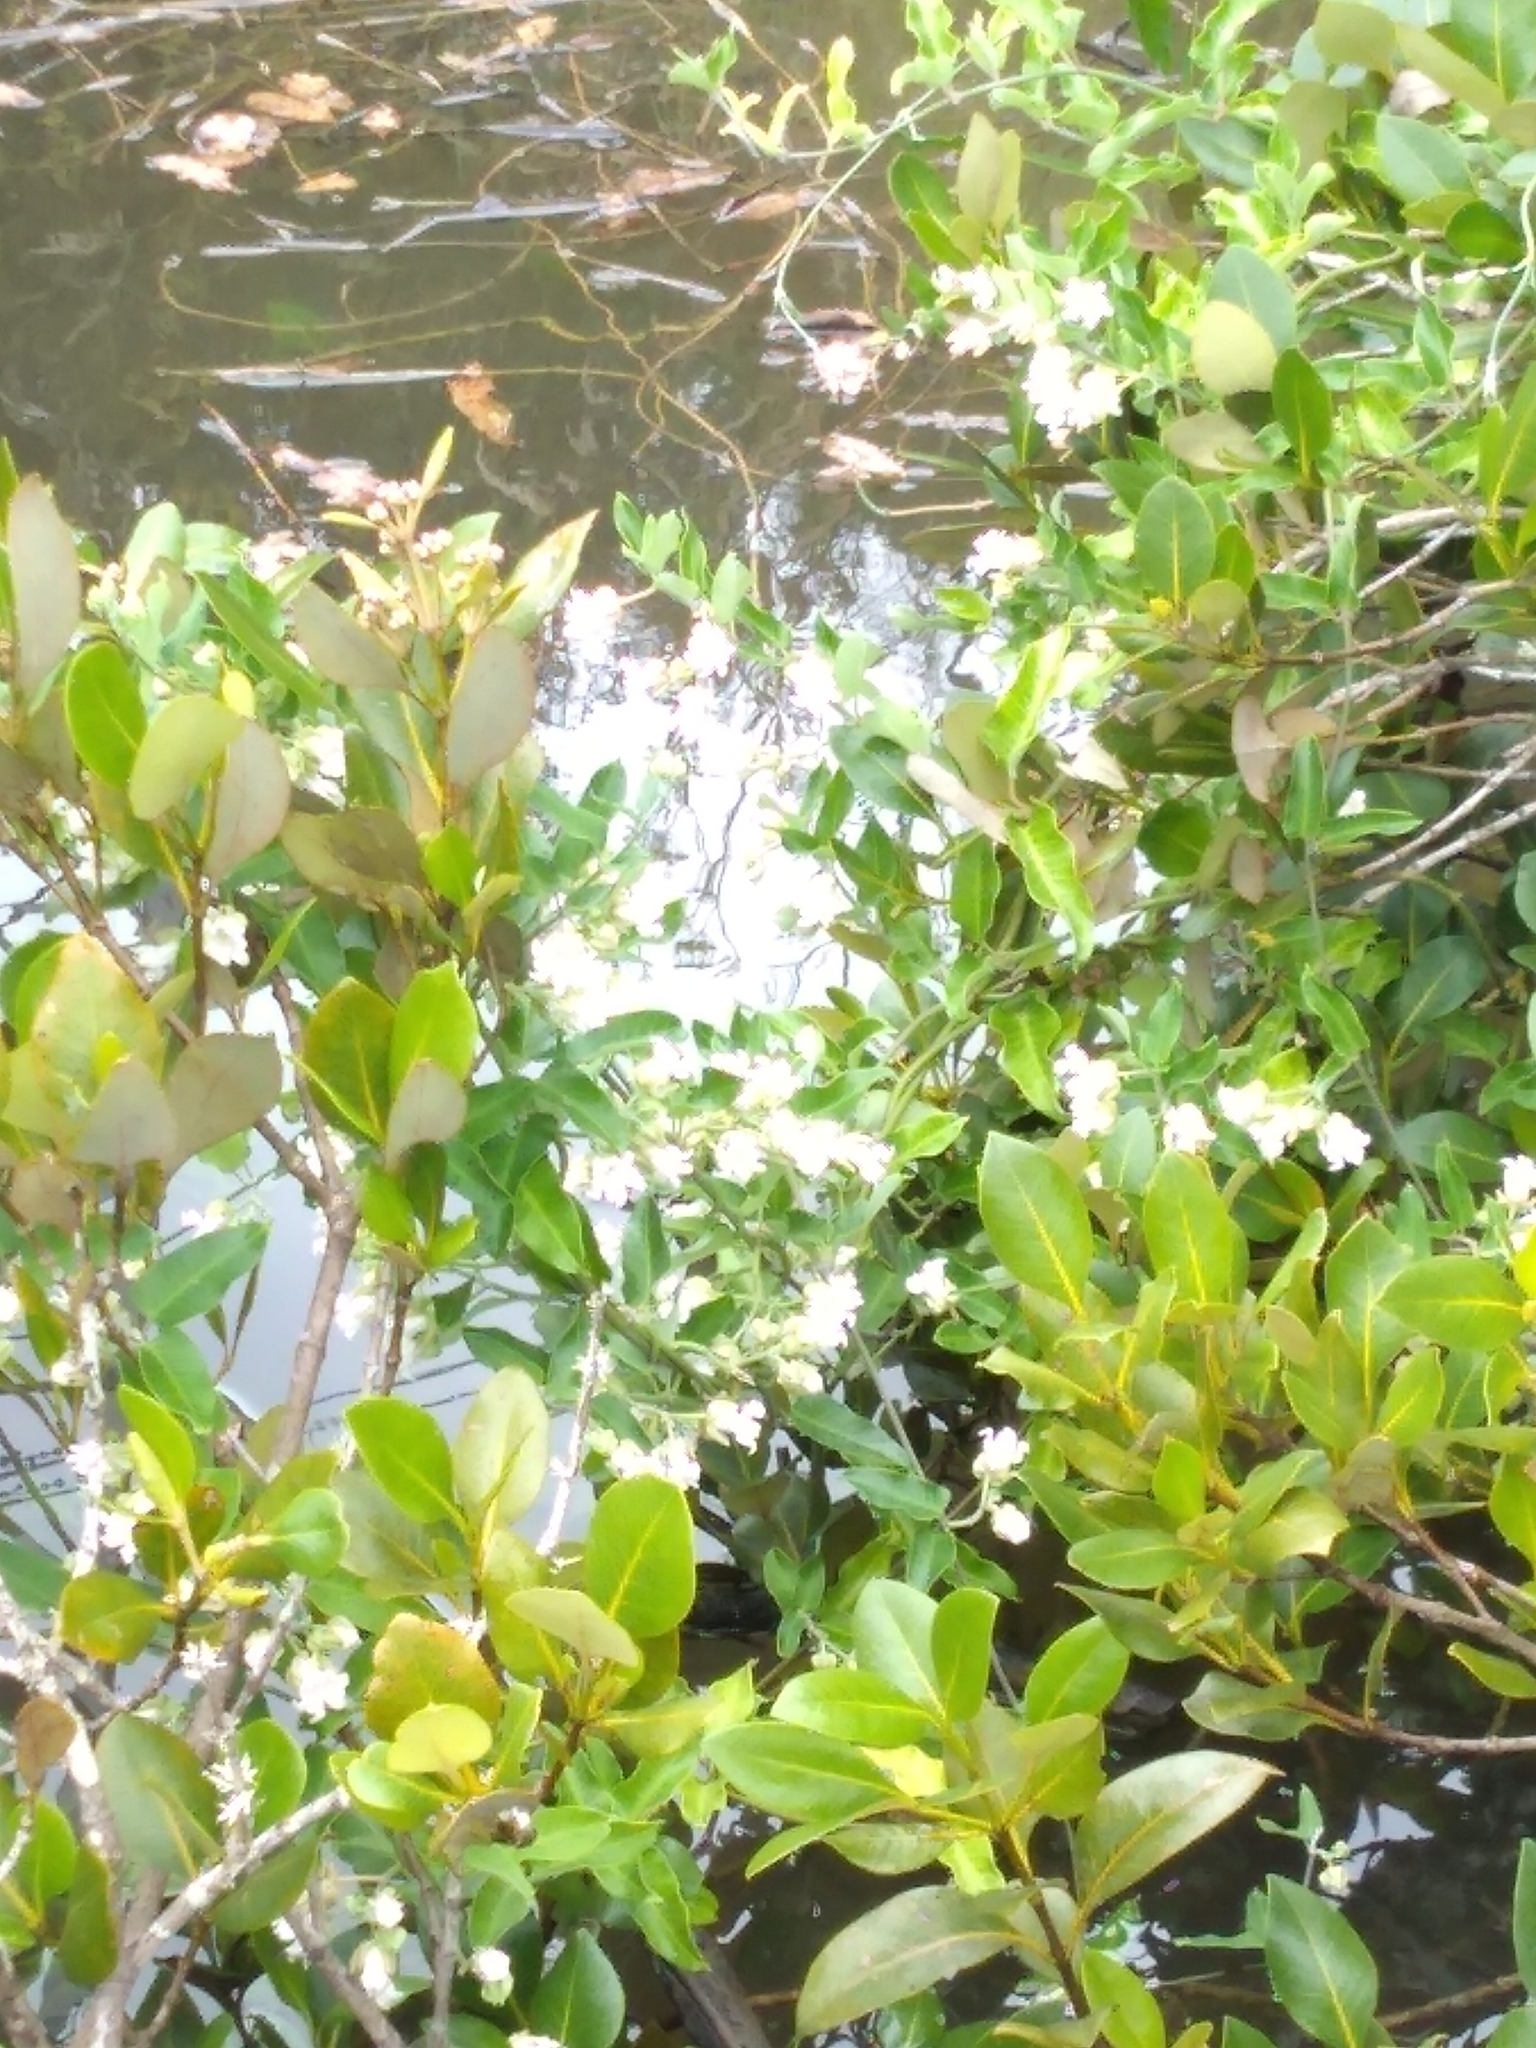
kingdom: Plantae
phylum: Tracheophyta
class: Magnoliopsida
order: Gentianales
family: Apocynaceae
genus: Araujia
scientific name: Araujia sericifera
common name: White bladderflower
